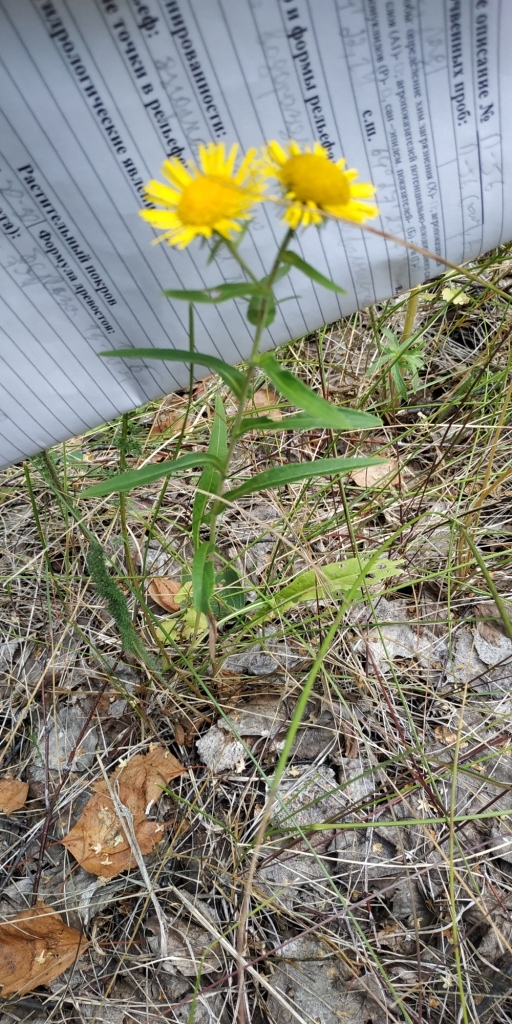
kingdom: Plantae
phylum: Tracheophyta
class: Magnoliopsida
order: Asterales
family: Asteraceae
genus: Pentanema
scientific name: Pentanema britannicum
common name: British elecampane
